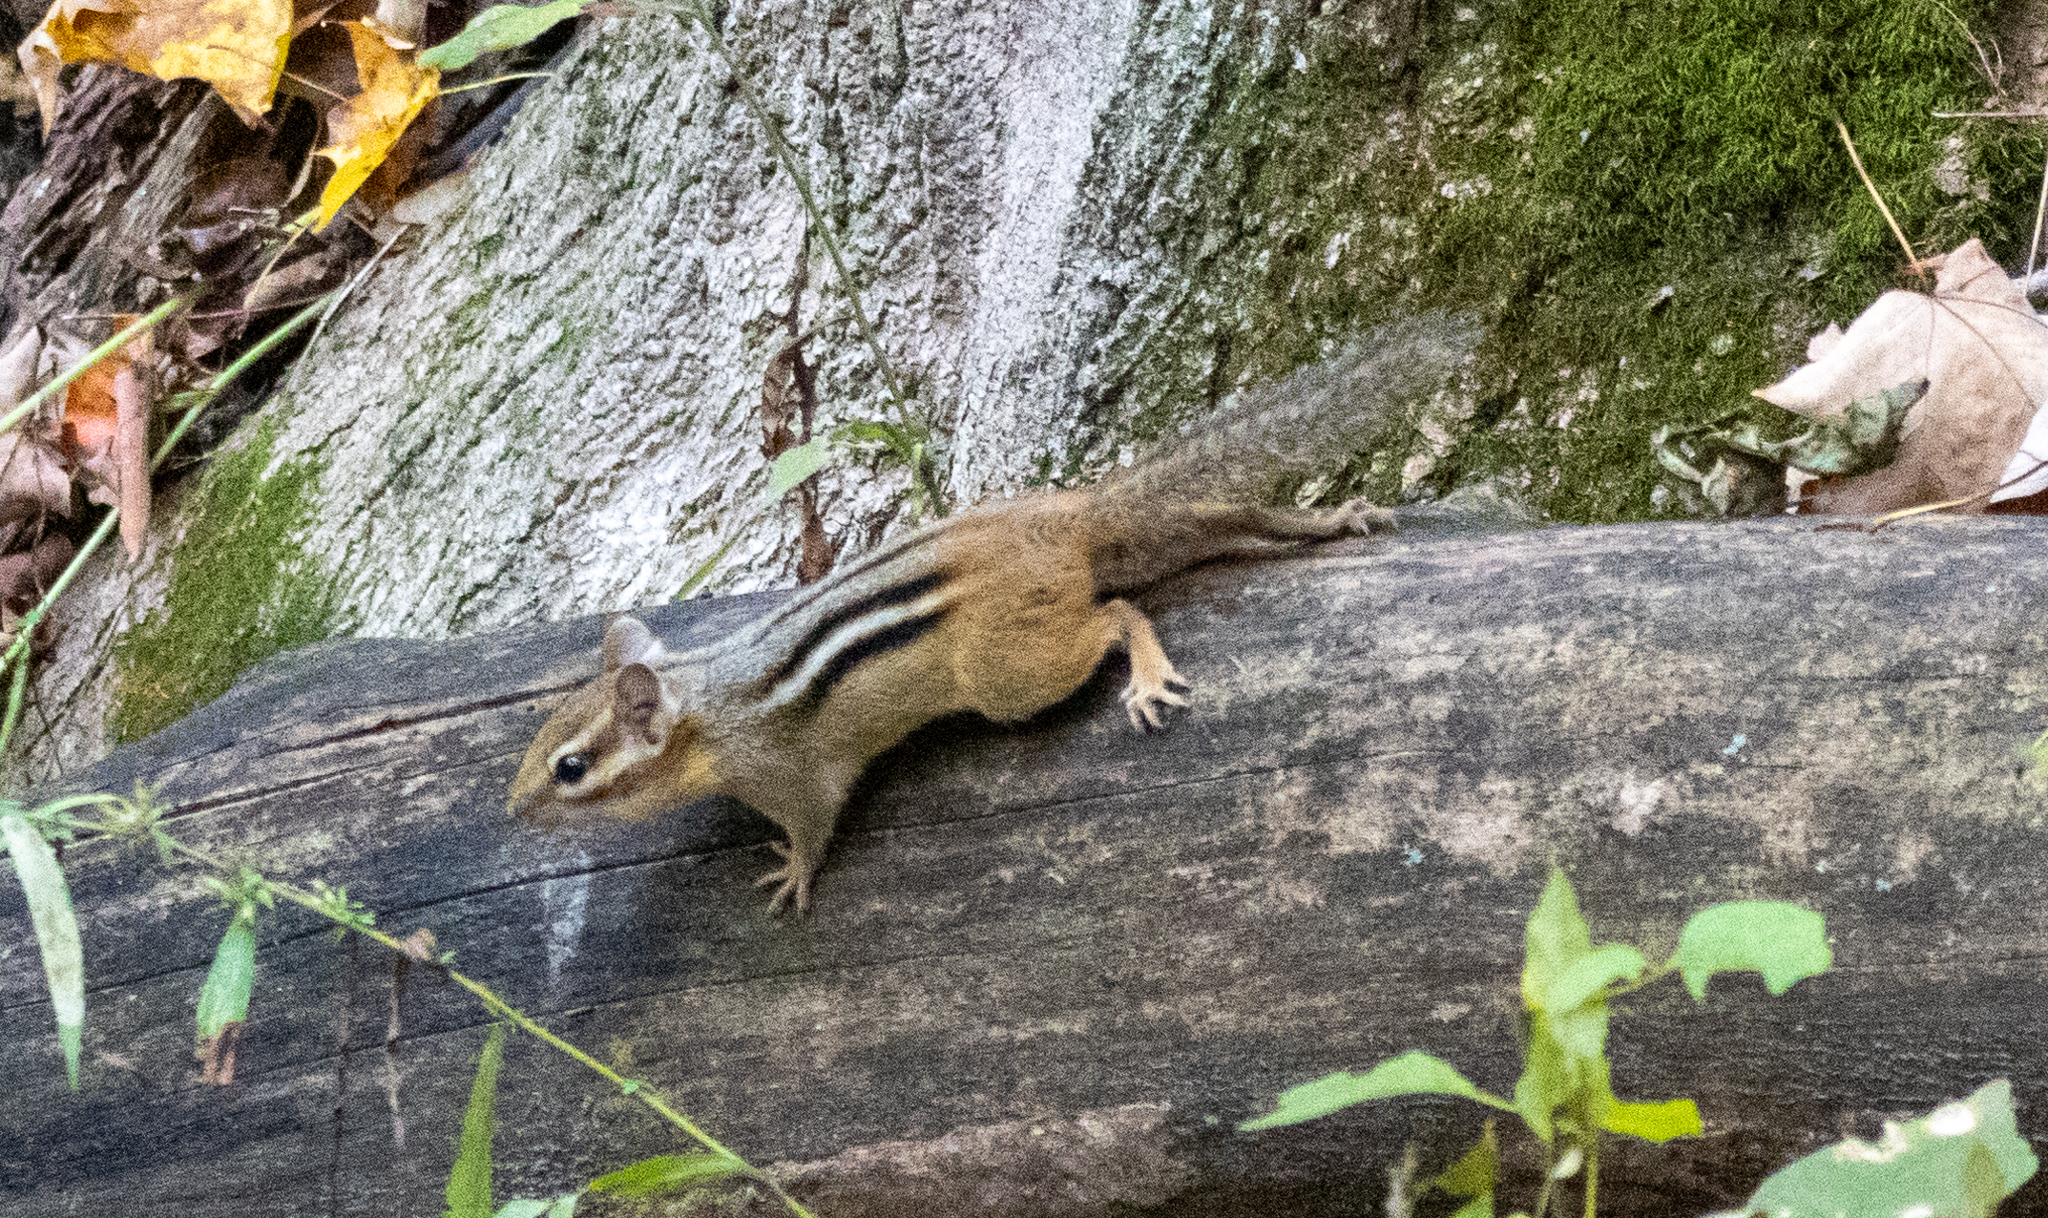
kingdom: Animalia
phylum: Chordata
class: Mammalia
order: Rodentia
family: Sciuridae
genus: Tamias
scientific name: Tamias striatus
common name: Eastern chipmunk
